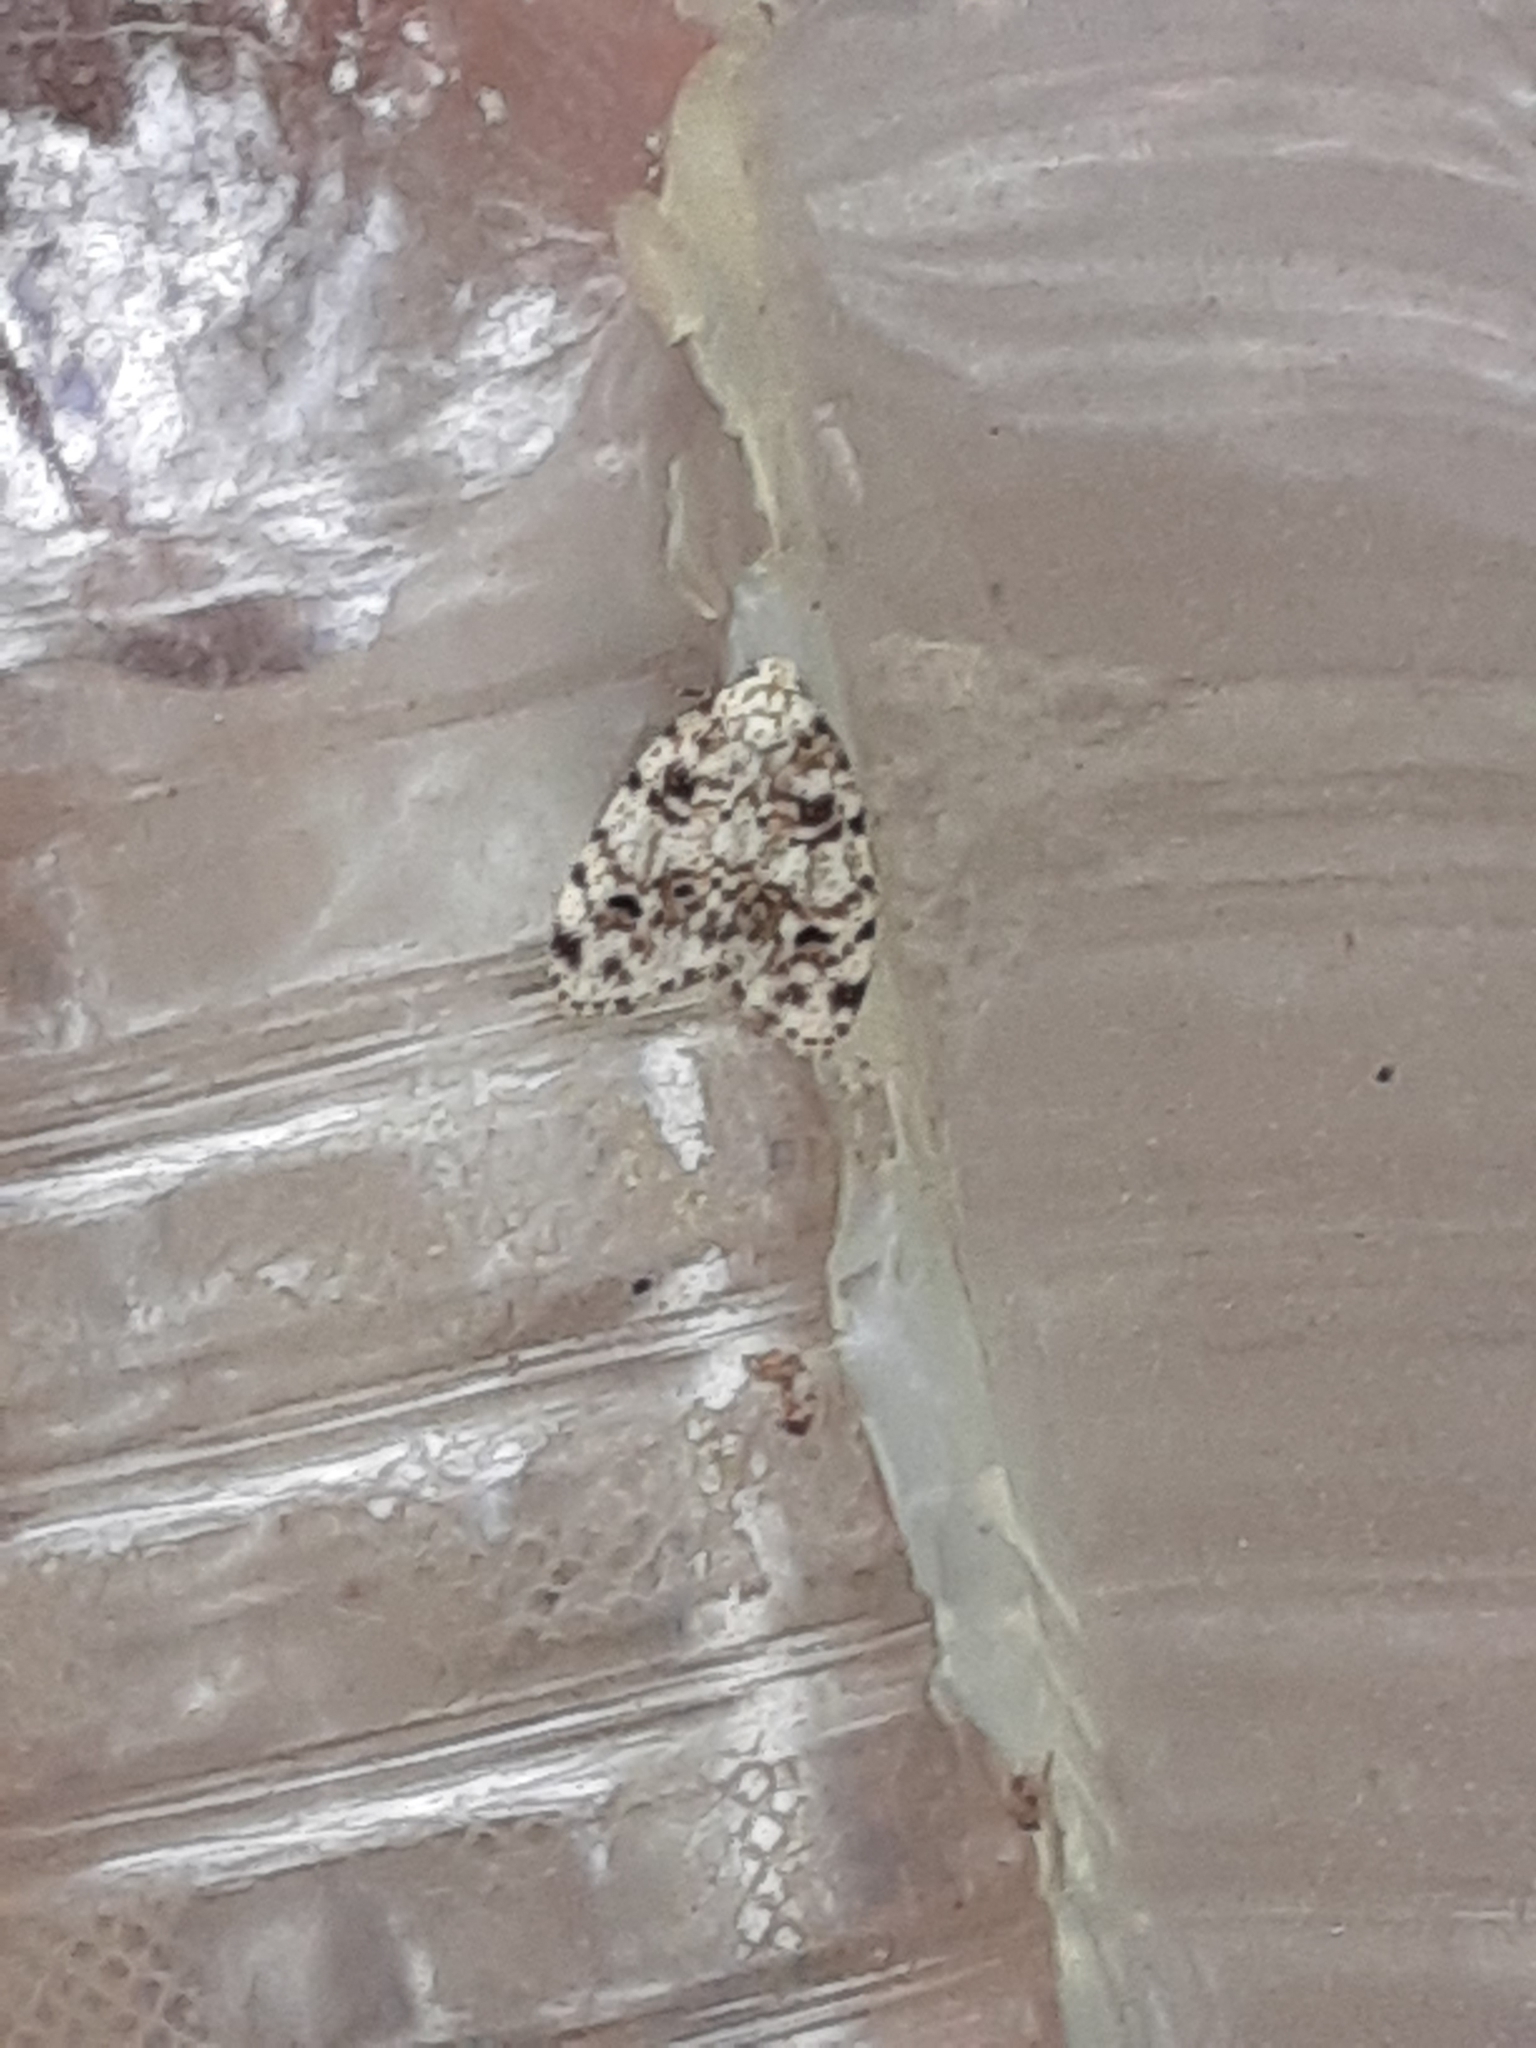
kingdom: Animalia
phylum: Arthropoda
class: Insecta
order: Lepidoptera
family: Erebidae
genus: Clemensia
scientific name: Clemensia ochreata
